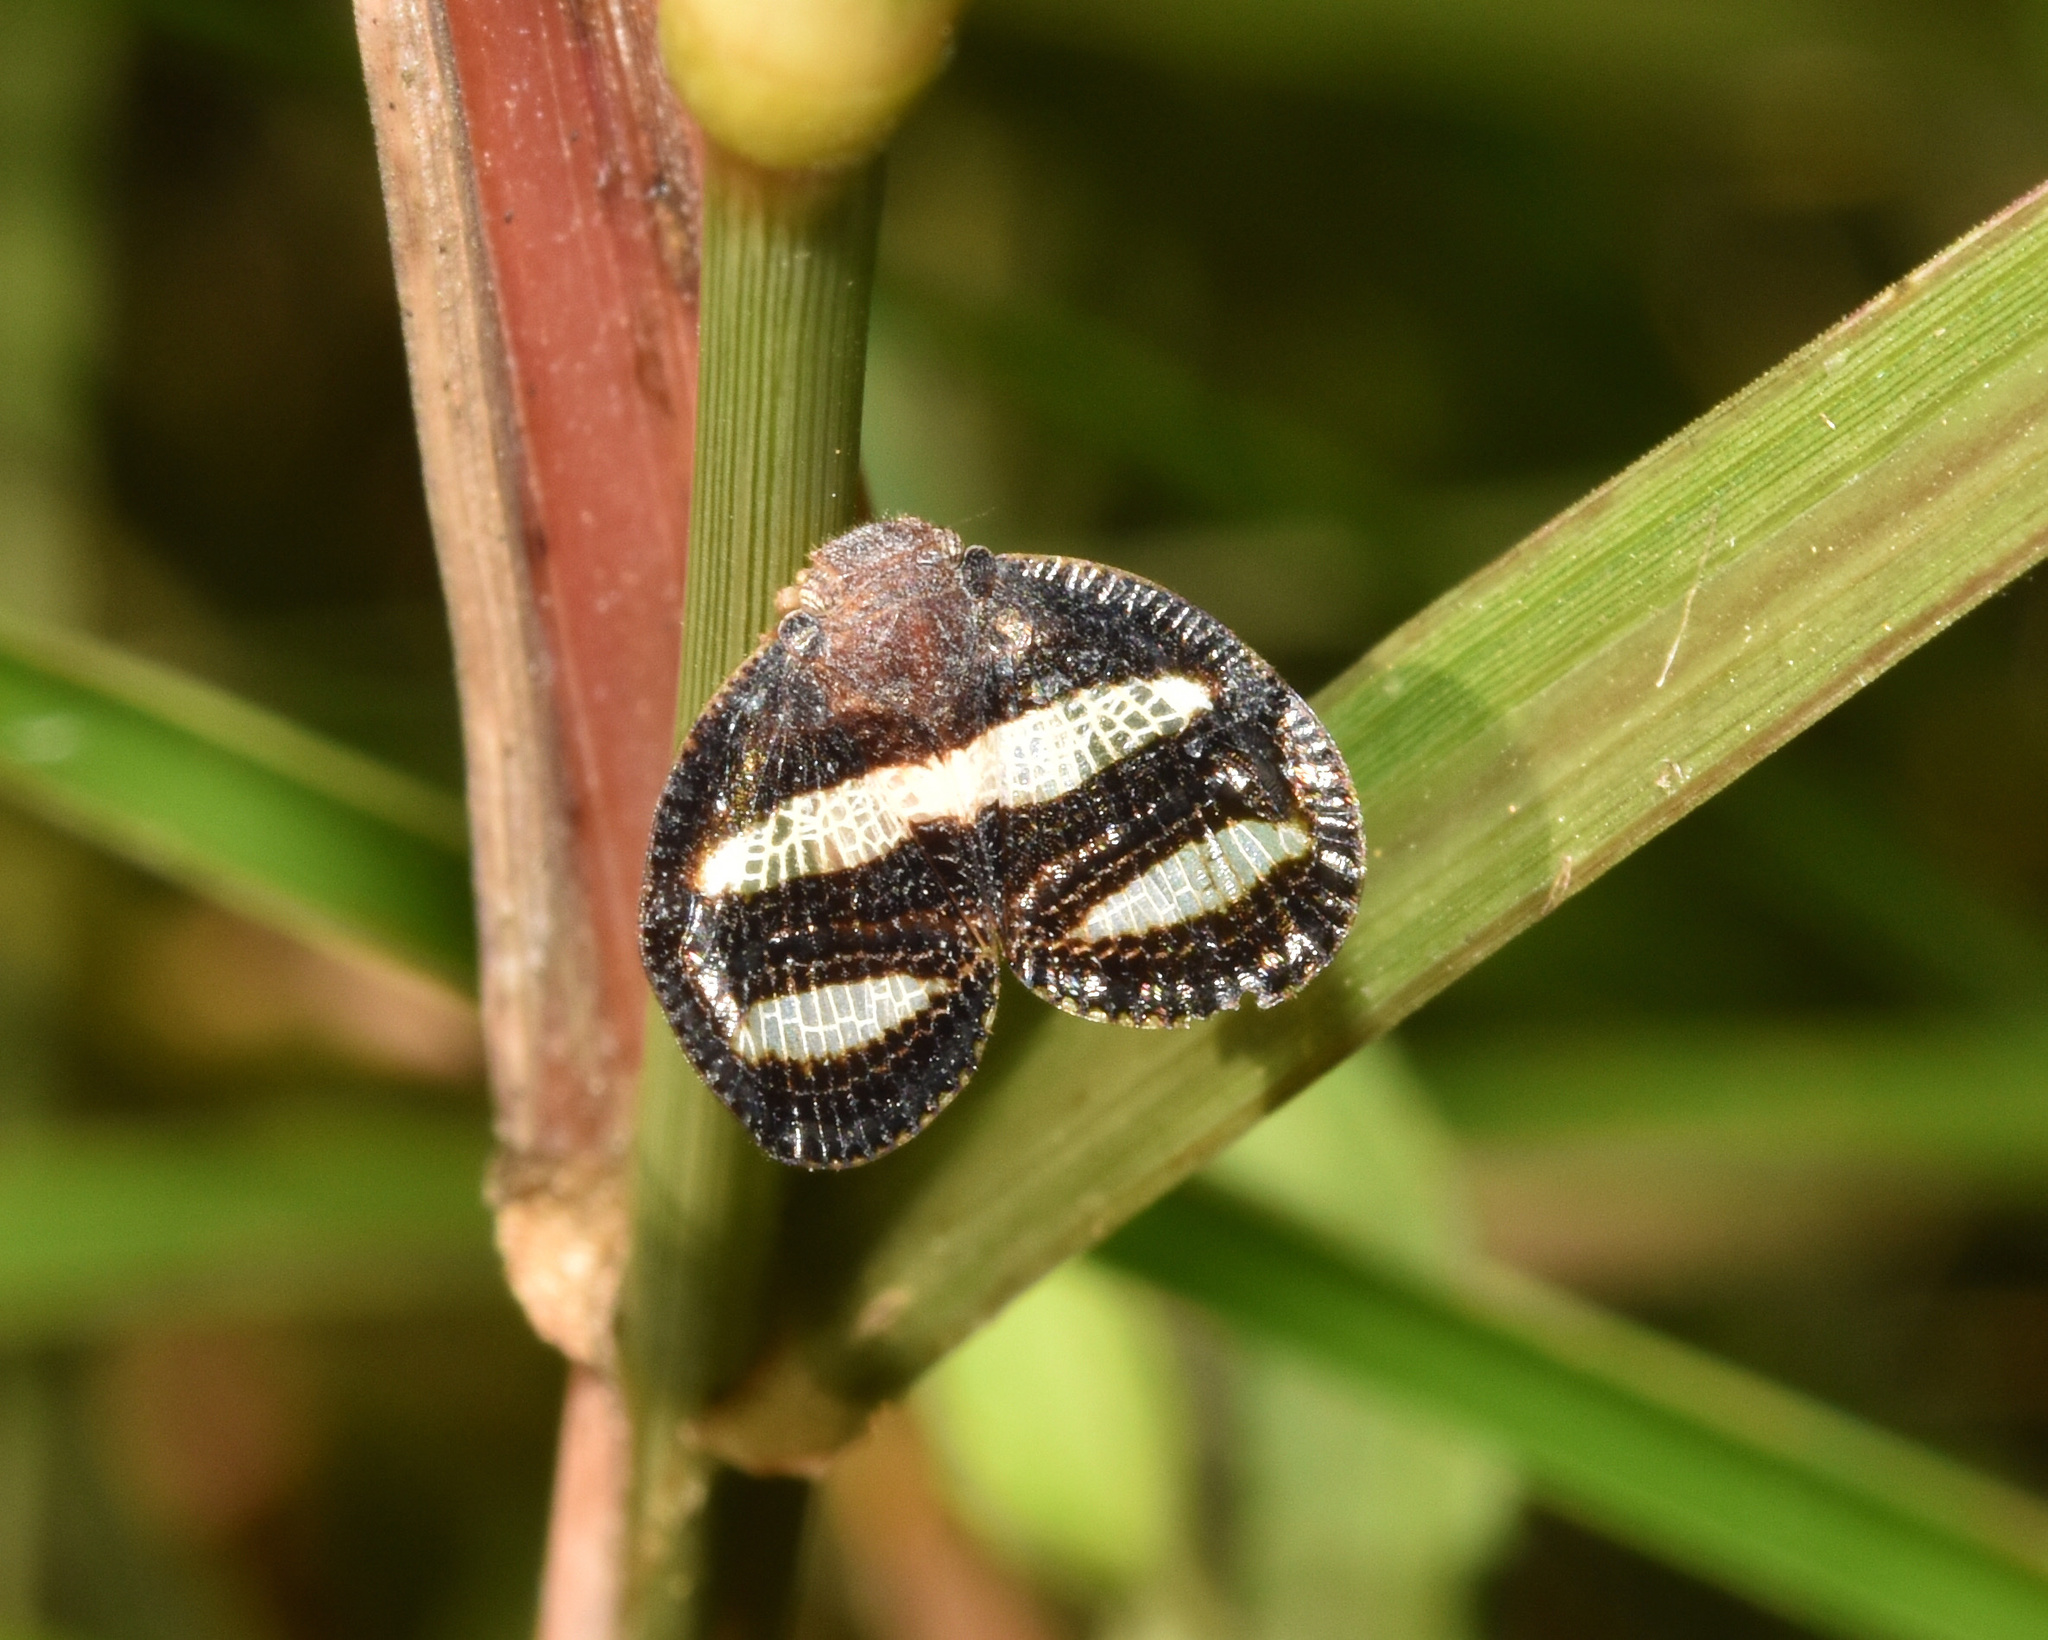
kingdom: Animalia
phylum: Arthropoda
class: Insecta
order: Hemiptera
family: Ricaniidae
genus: Mulvia
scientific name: Mulvia albizona
